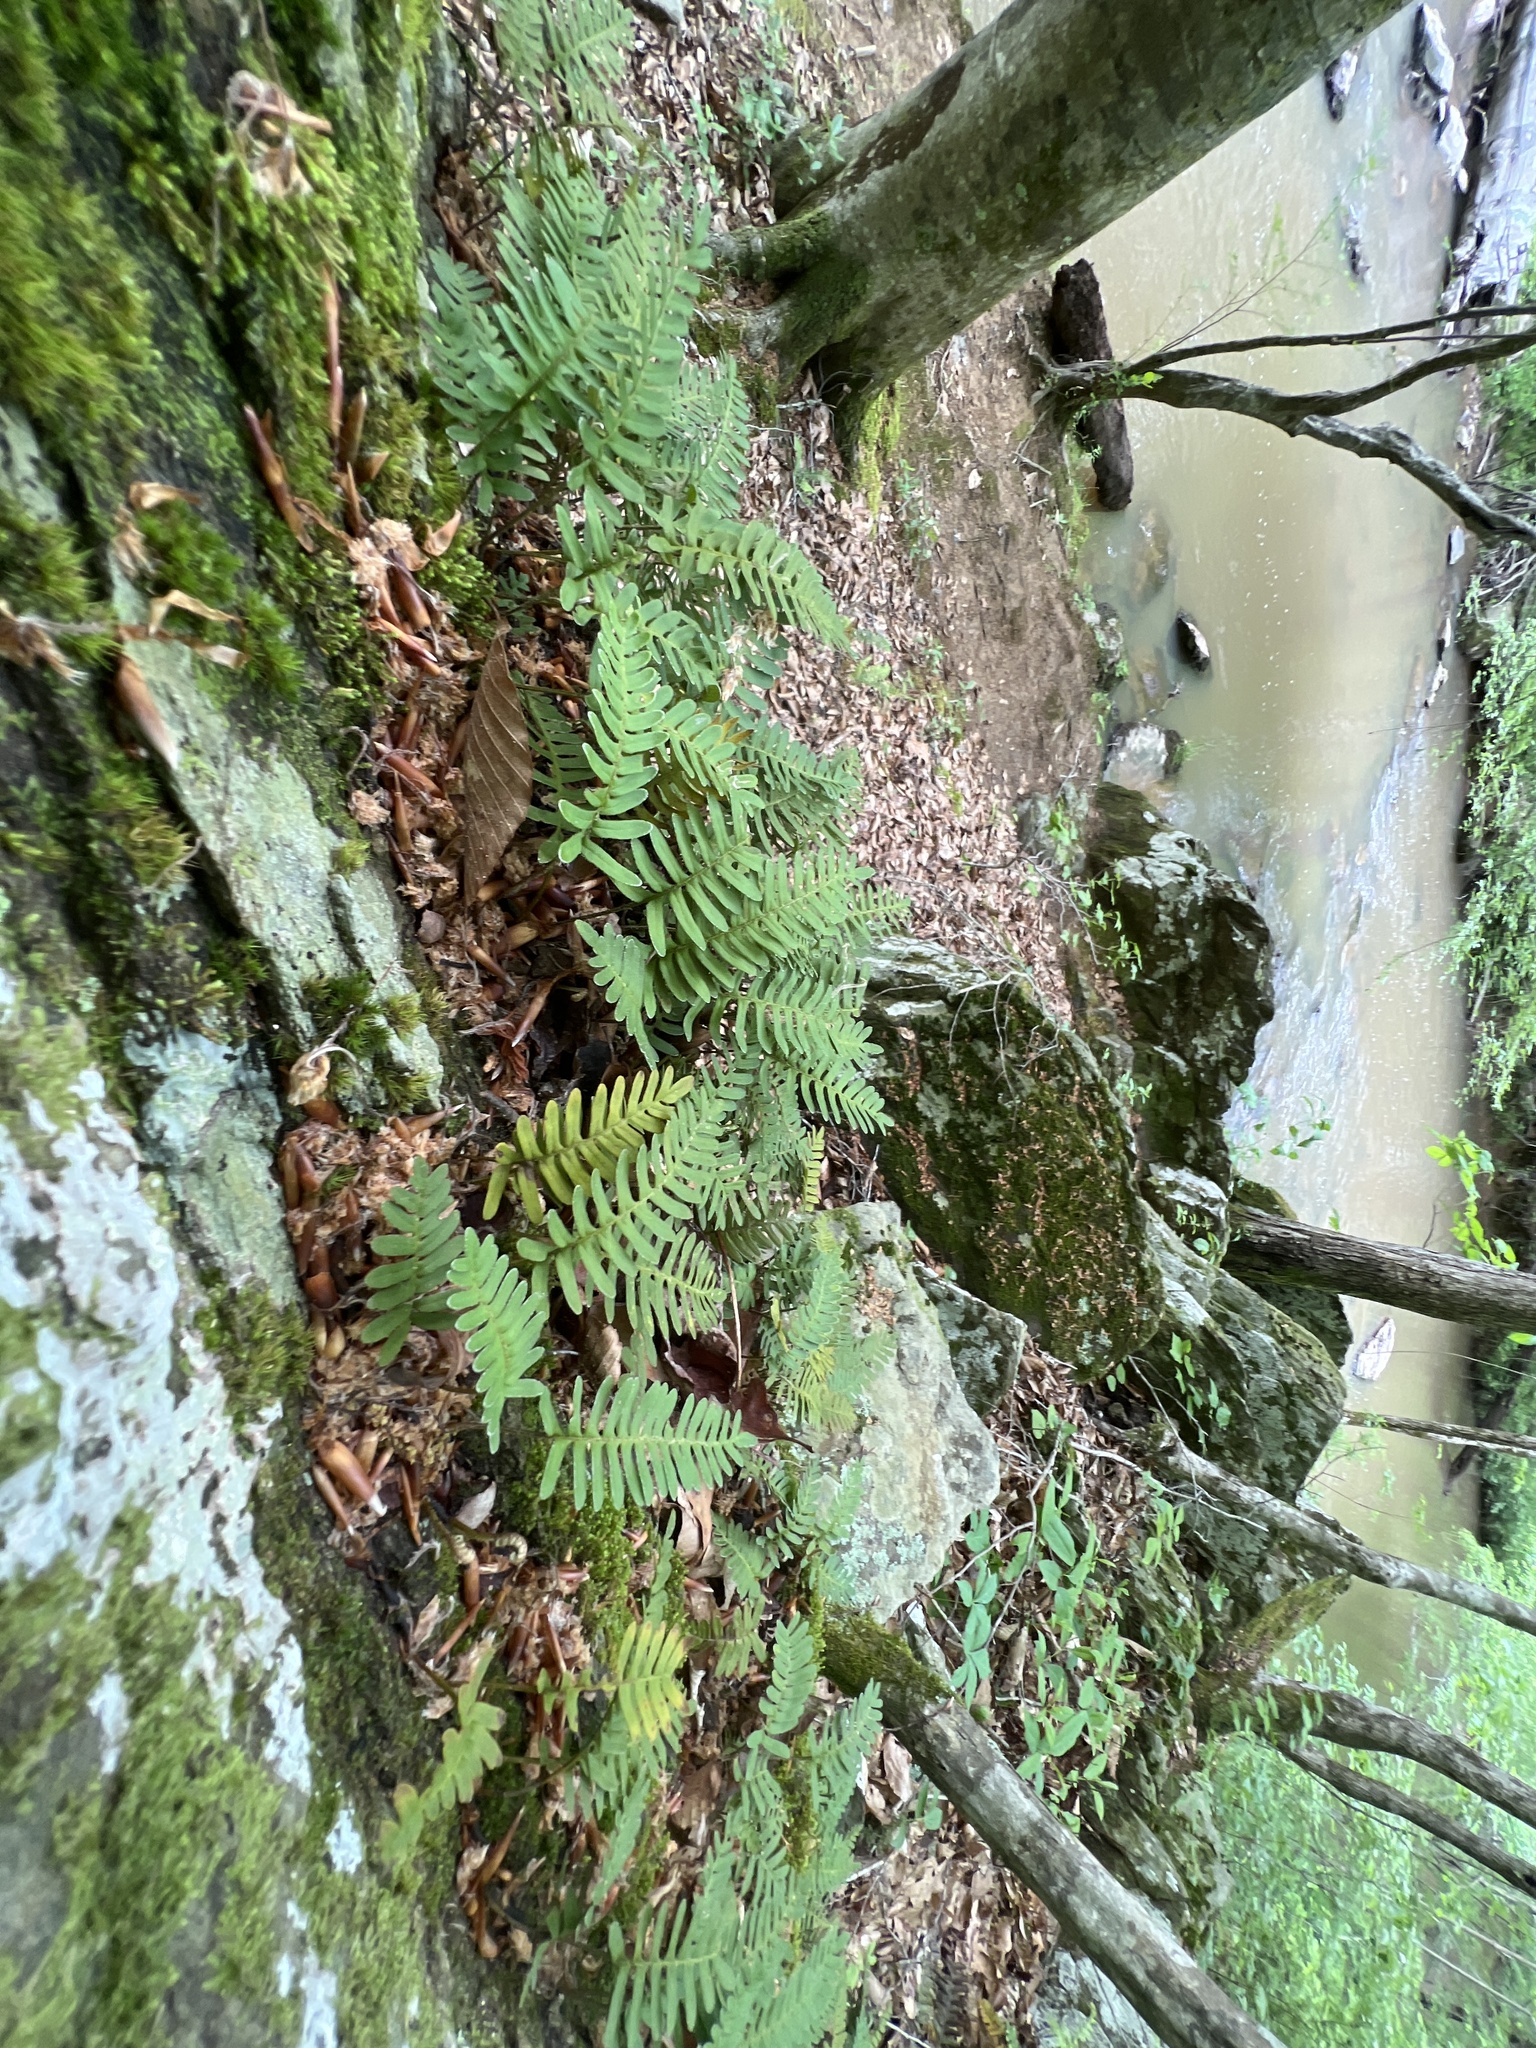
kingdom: Plantae
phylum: Tracheophyta
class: Polypodiopsida
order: Polypodiales
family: Polypodiaceae
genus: Pleopeltis
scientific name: Pleopeltis michauxiana
